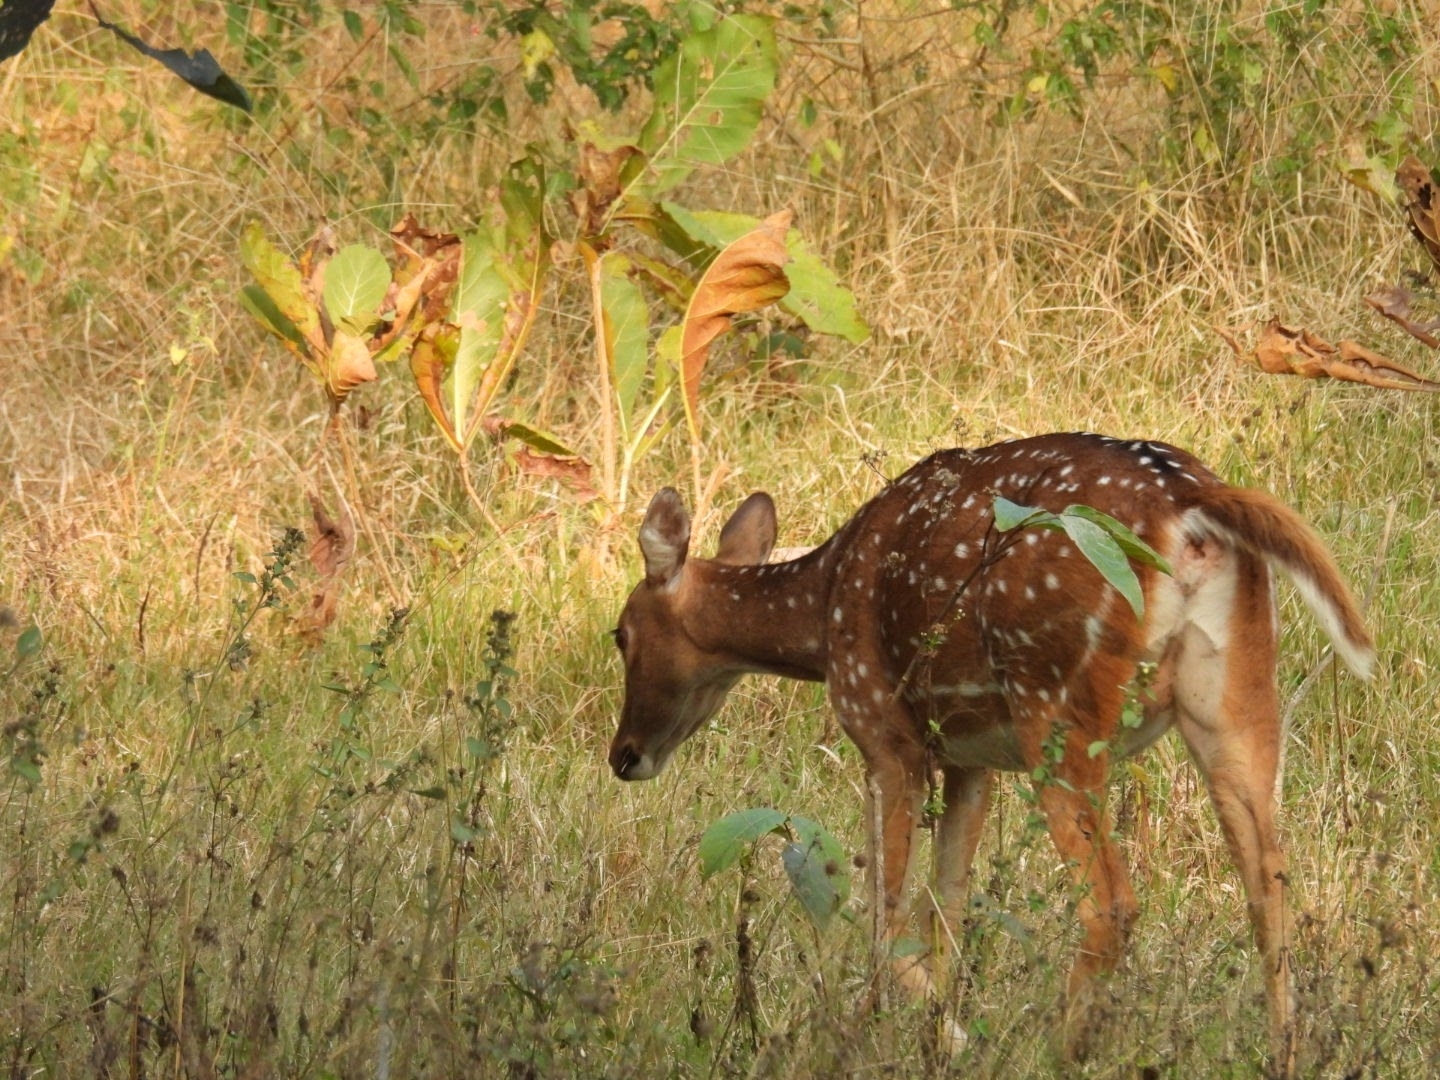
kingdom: Animalia
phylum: Chordata
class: Mammalia
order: Artiodactyla
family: Cervidae
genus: Axis
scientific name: Axis axis
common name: Chital
